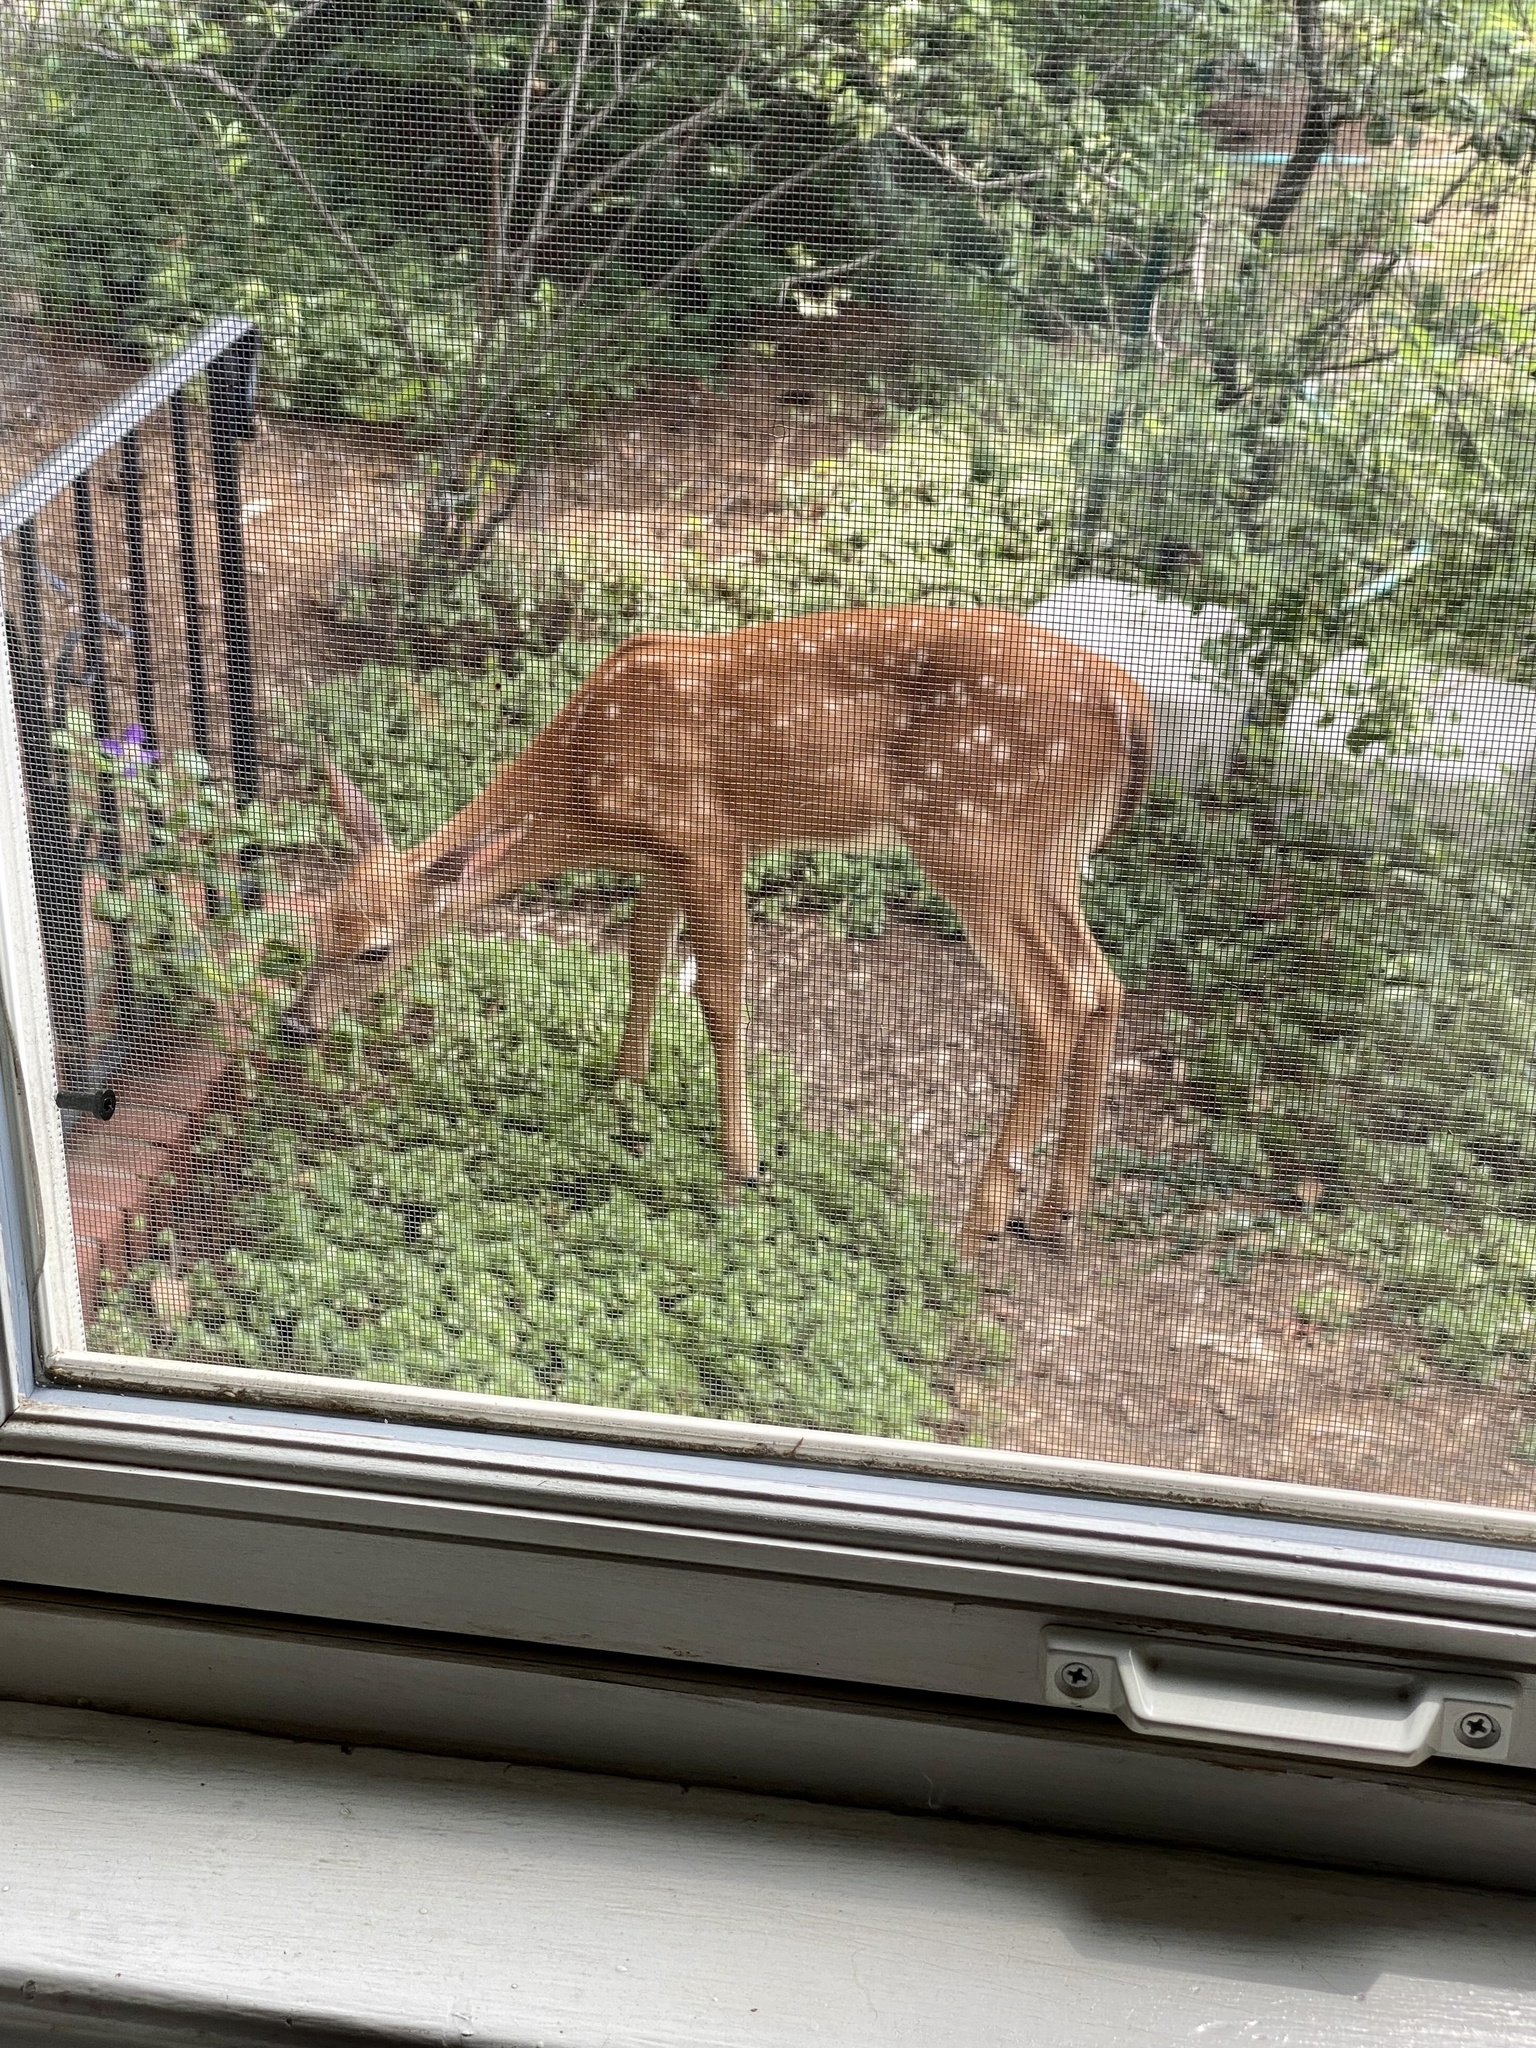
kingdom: Animalia
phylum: Chordata
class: Mammalia
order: Artiodactyla
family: Cervidae
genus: Odocoileus
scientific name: Odocoileus virginianus
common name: White-tailed deer
